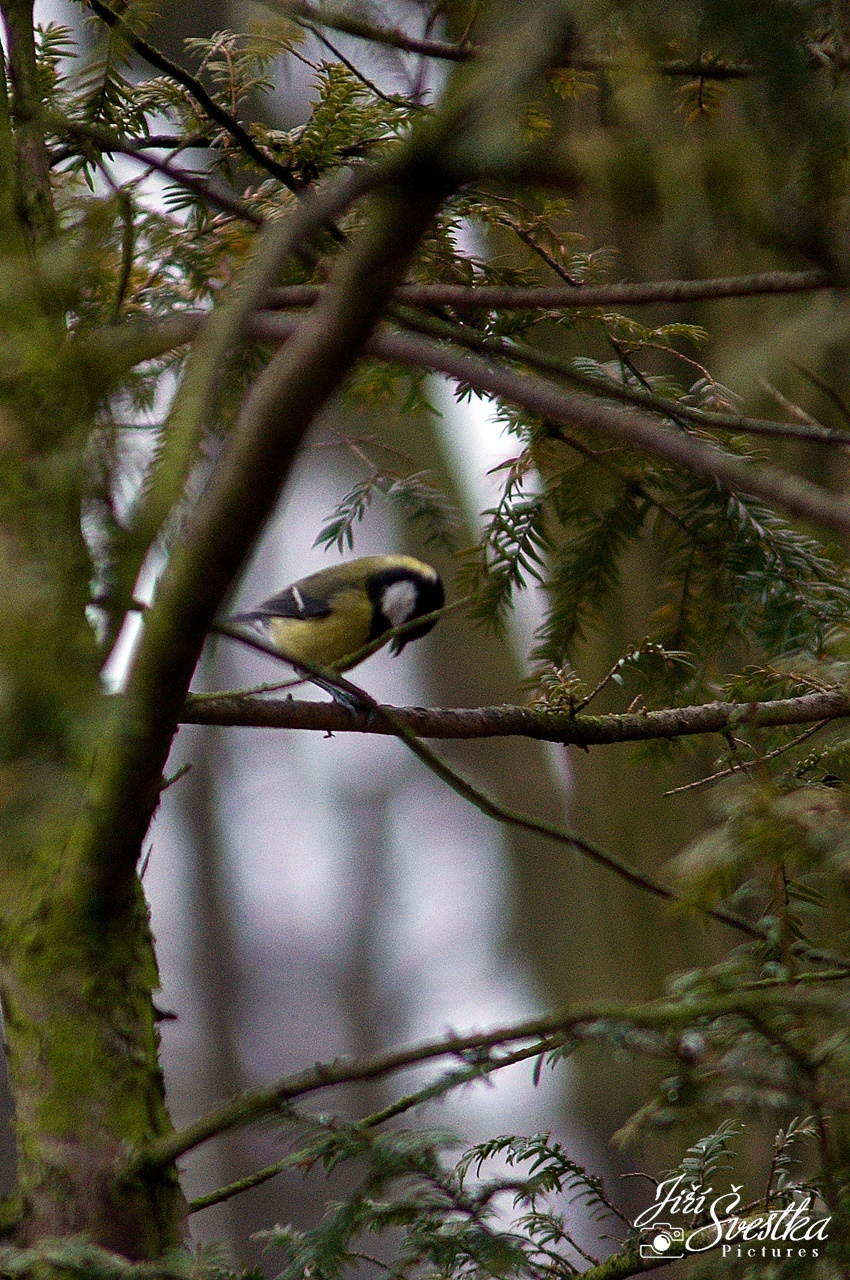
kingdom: Animalia
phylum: Chordata
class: Aves
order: Passeriformes
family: Paridae
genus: Parus
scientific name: Parus major
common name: Great tit
